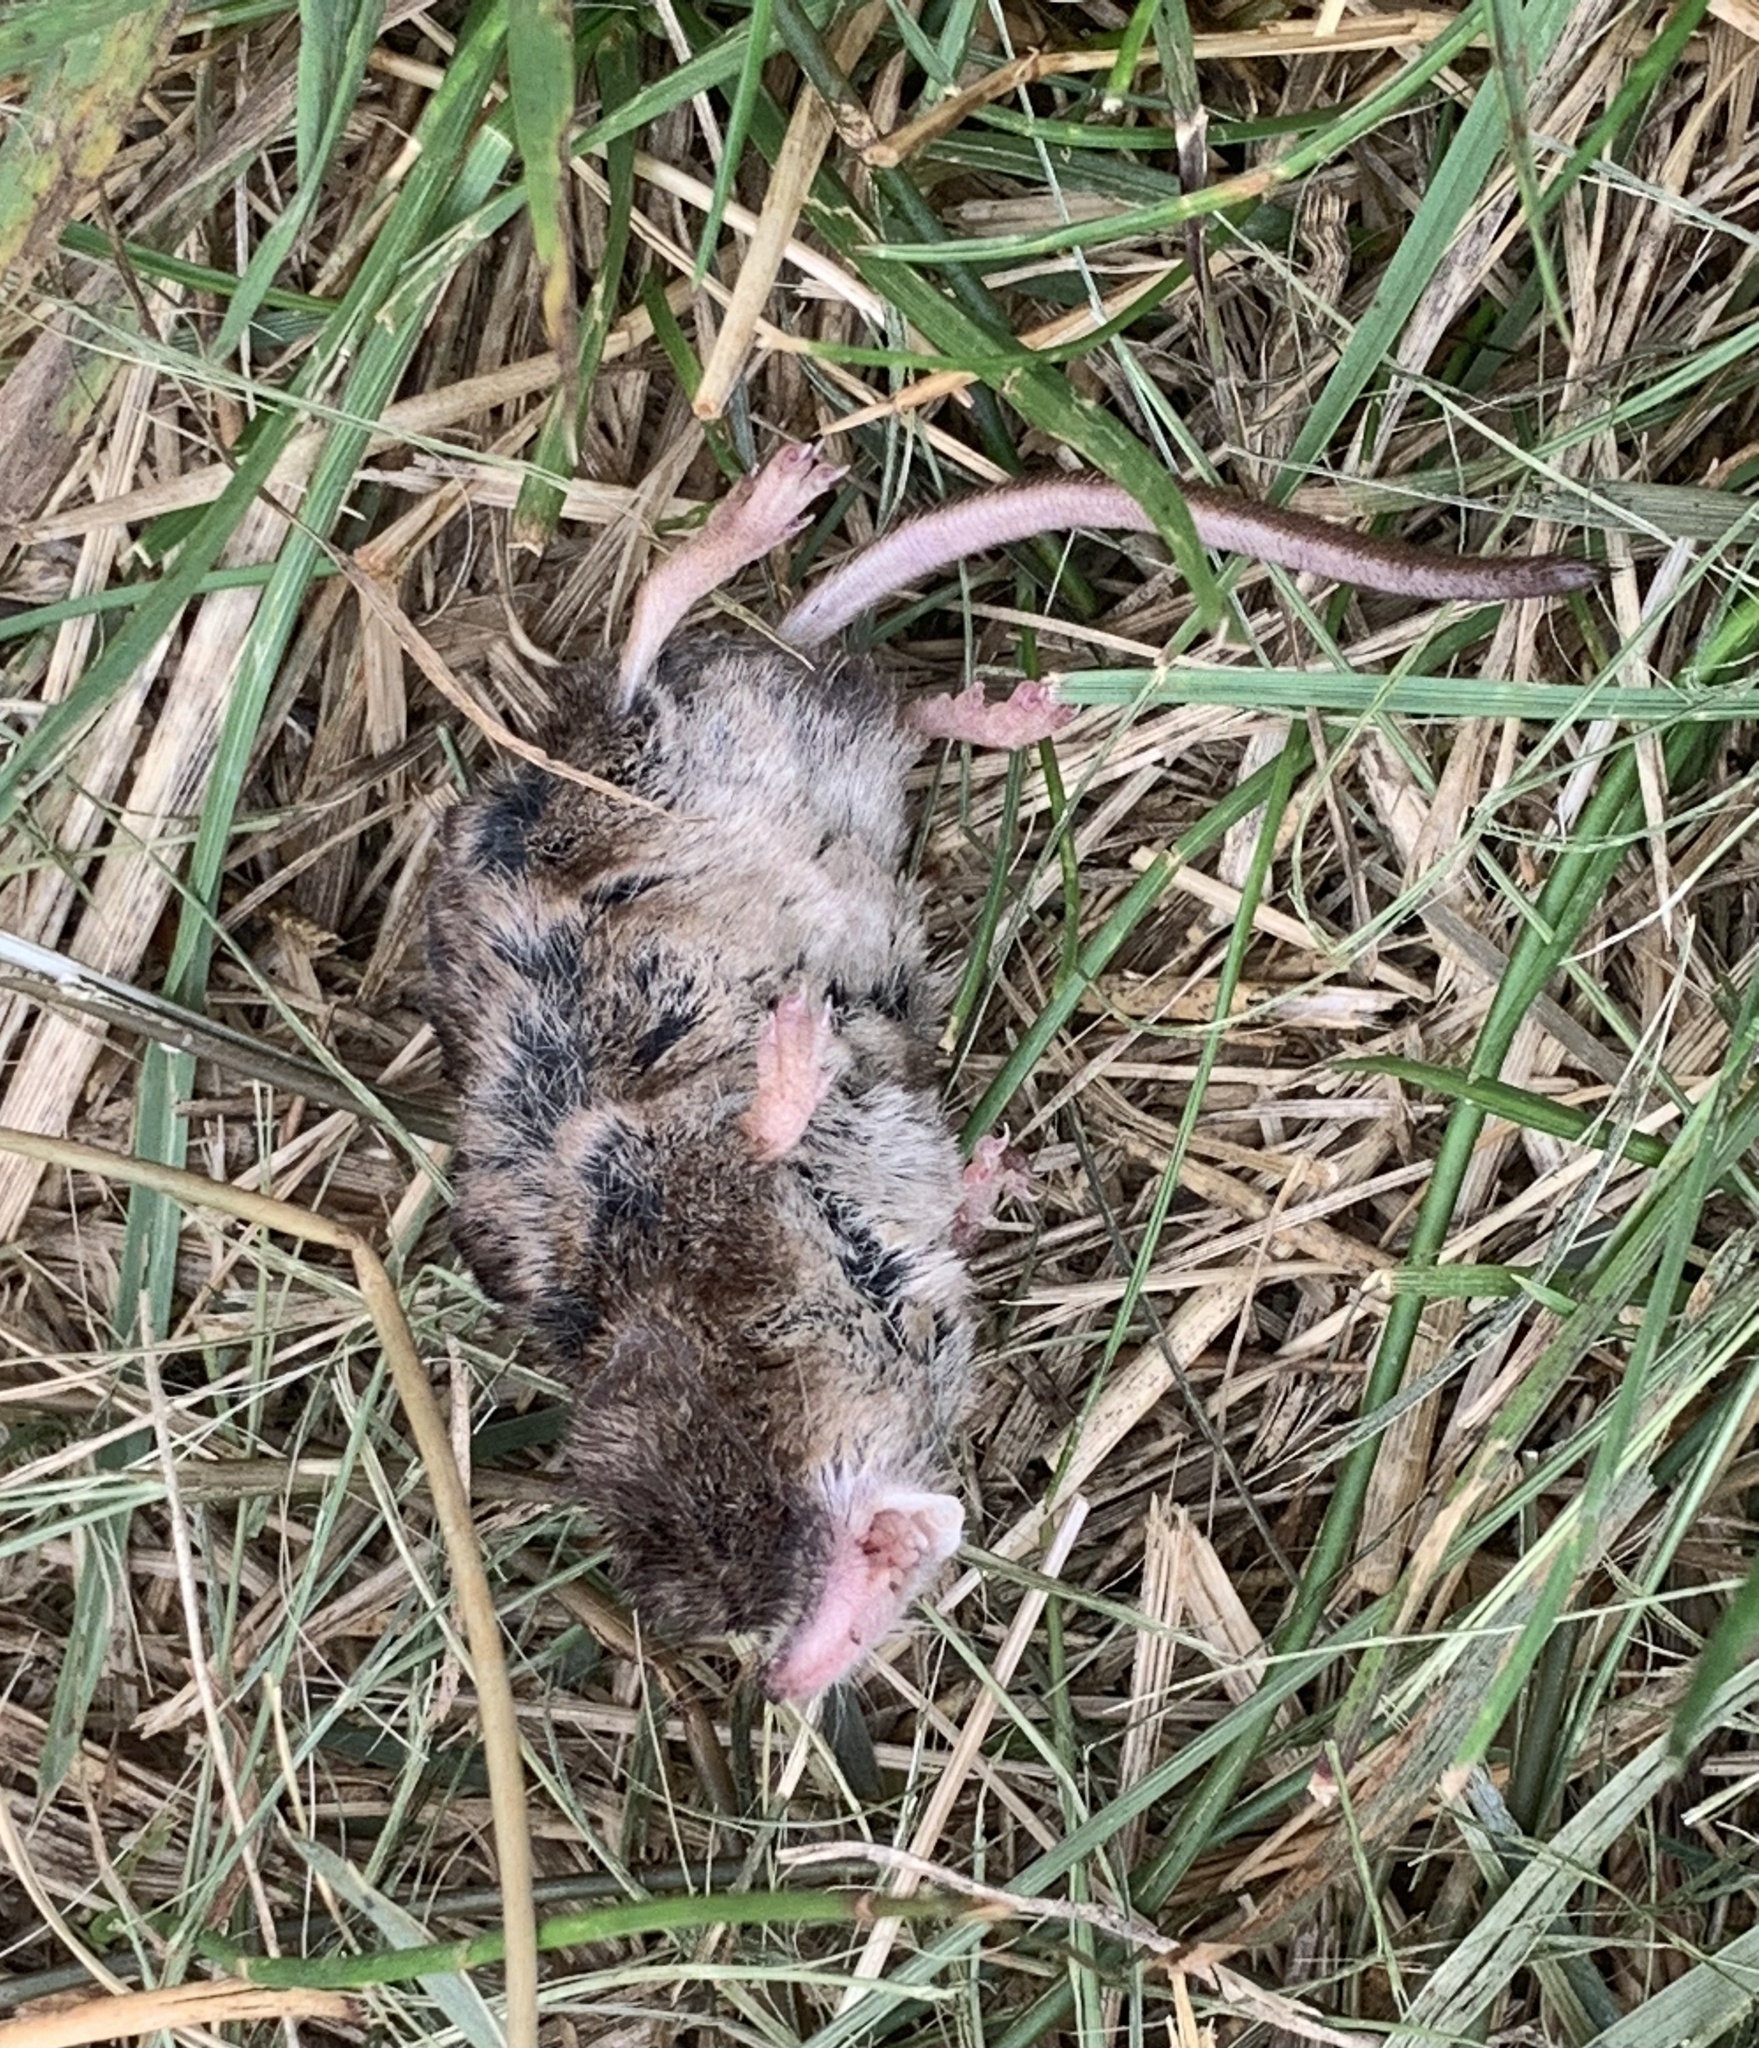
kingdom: Animalia
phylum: Chordata
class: Mammalia
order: Soricomorpha
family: Soricidae
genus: Sorex
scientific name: Sorex cinereus
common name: Cinereus shrew
